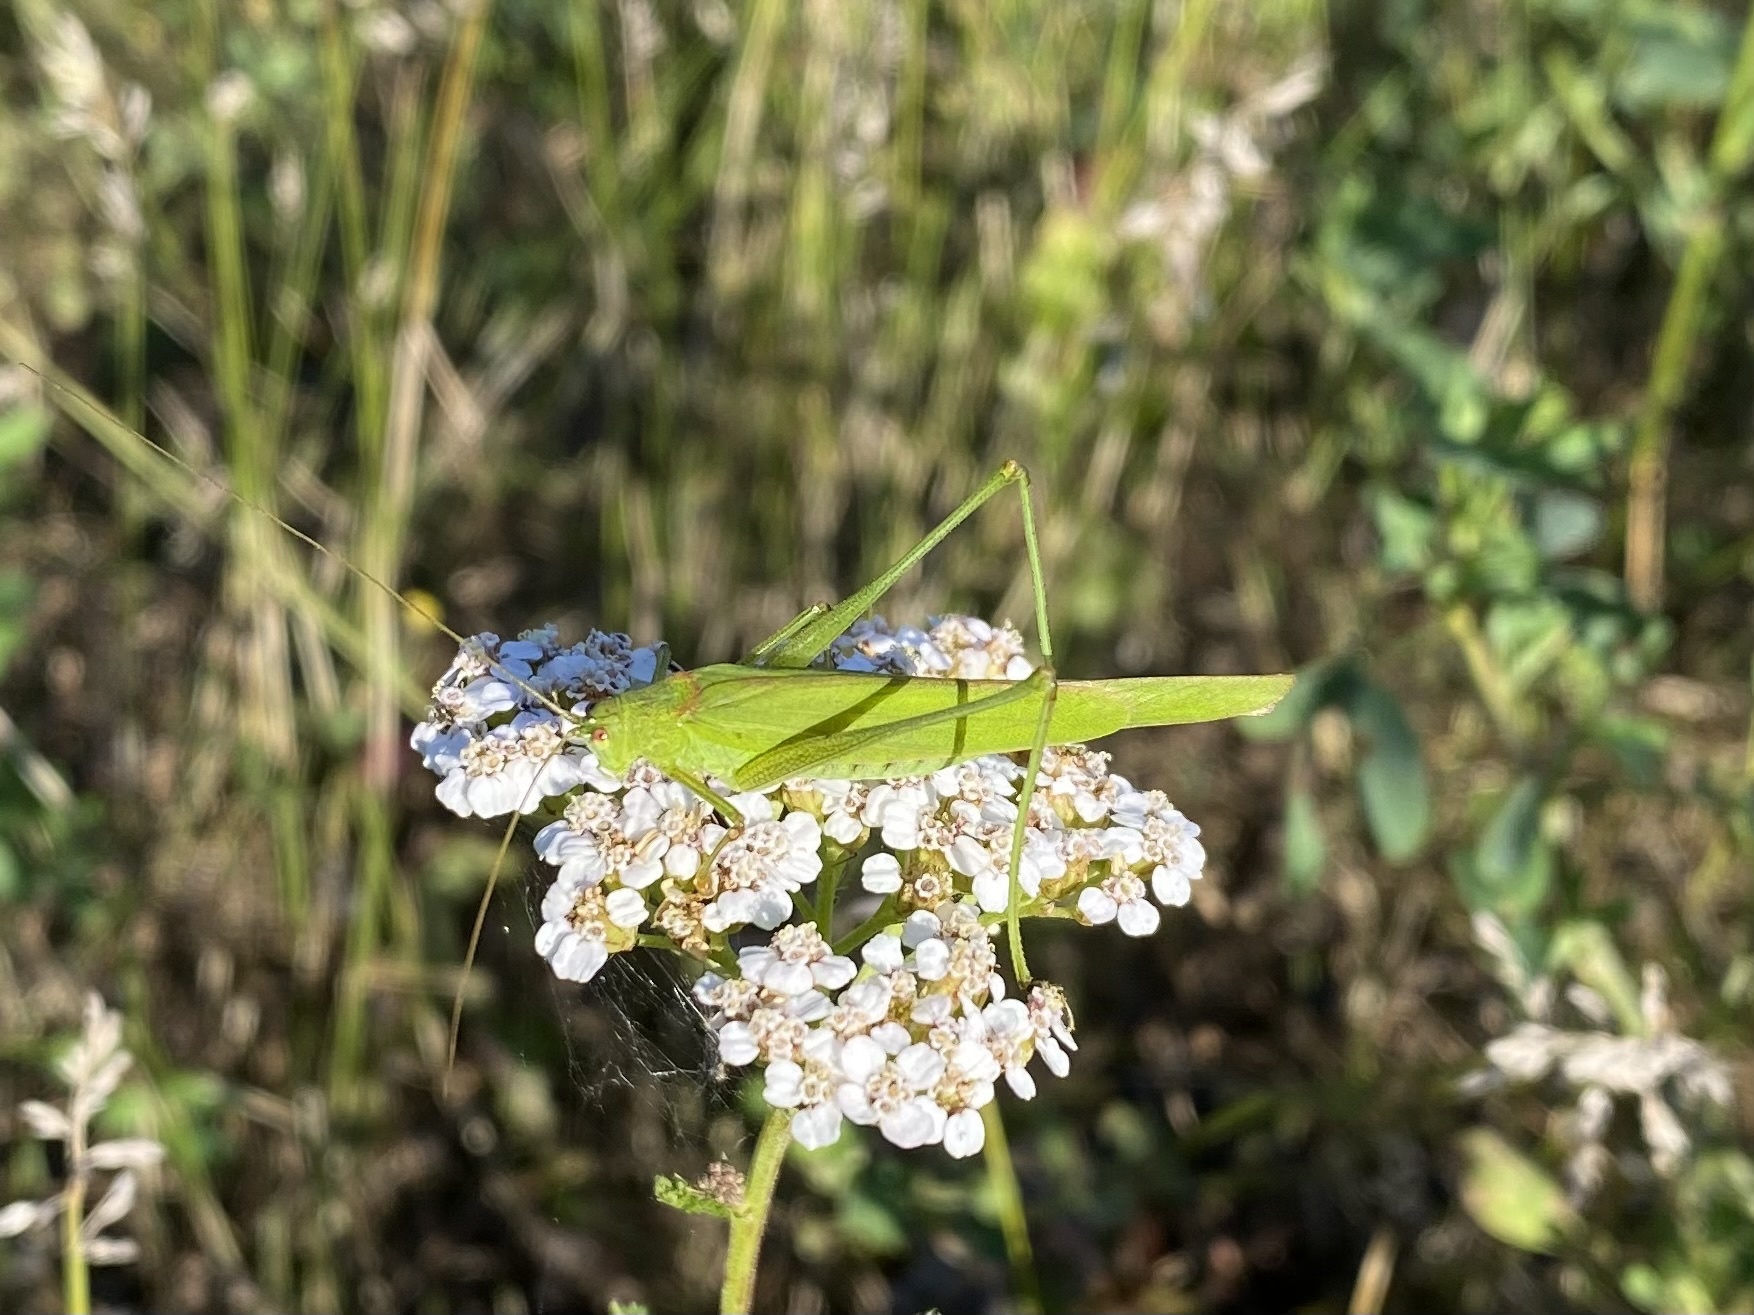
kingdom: Animalia
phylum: Arthropoda
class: Insecta
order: Orthoptera
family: Tettigoniidae
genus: Phaneroptera
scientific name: Phaneroptera falcata
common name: Sickle-bearing bush-cricket
